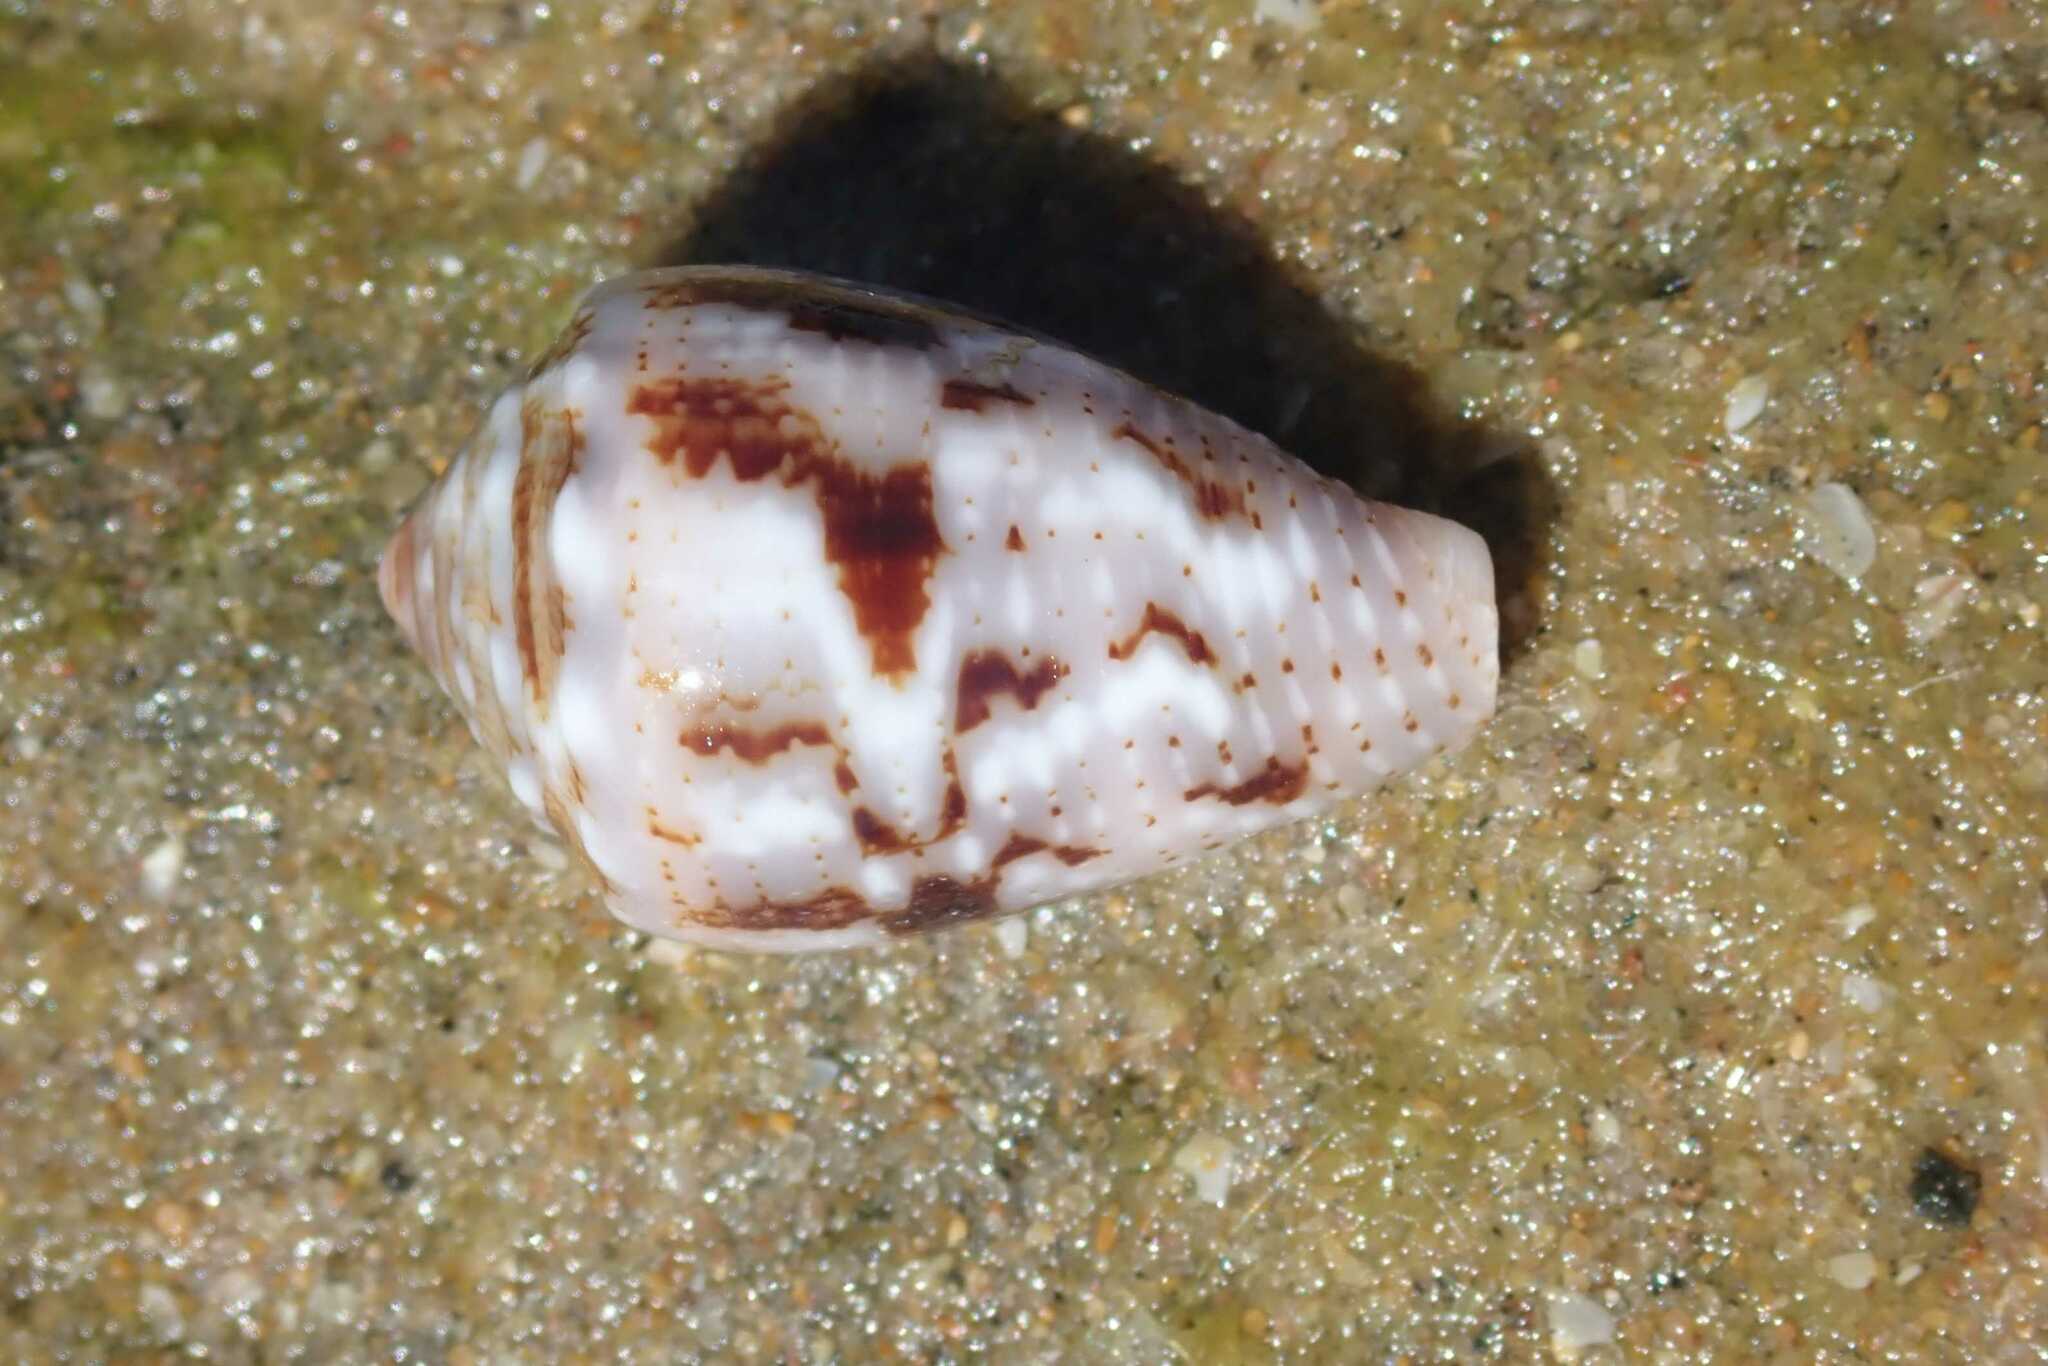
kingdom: Animalia
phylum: Mollusca
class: Gastropoda
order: Neogastropoda
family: Conidae
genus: Conus
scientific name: Conus coronatus
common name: Coronated cone
